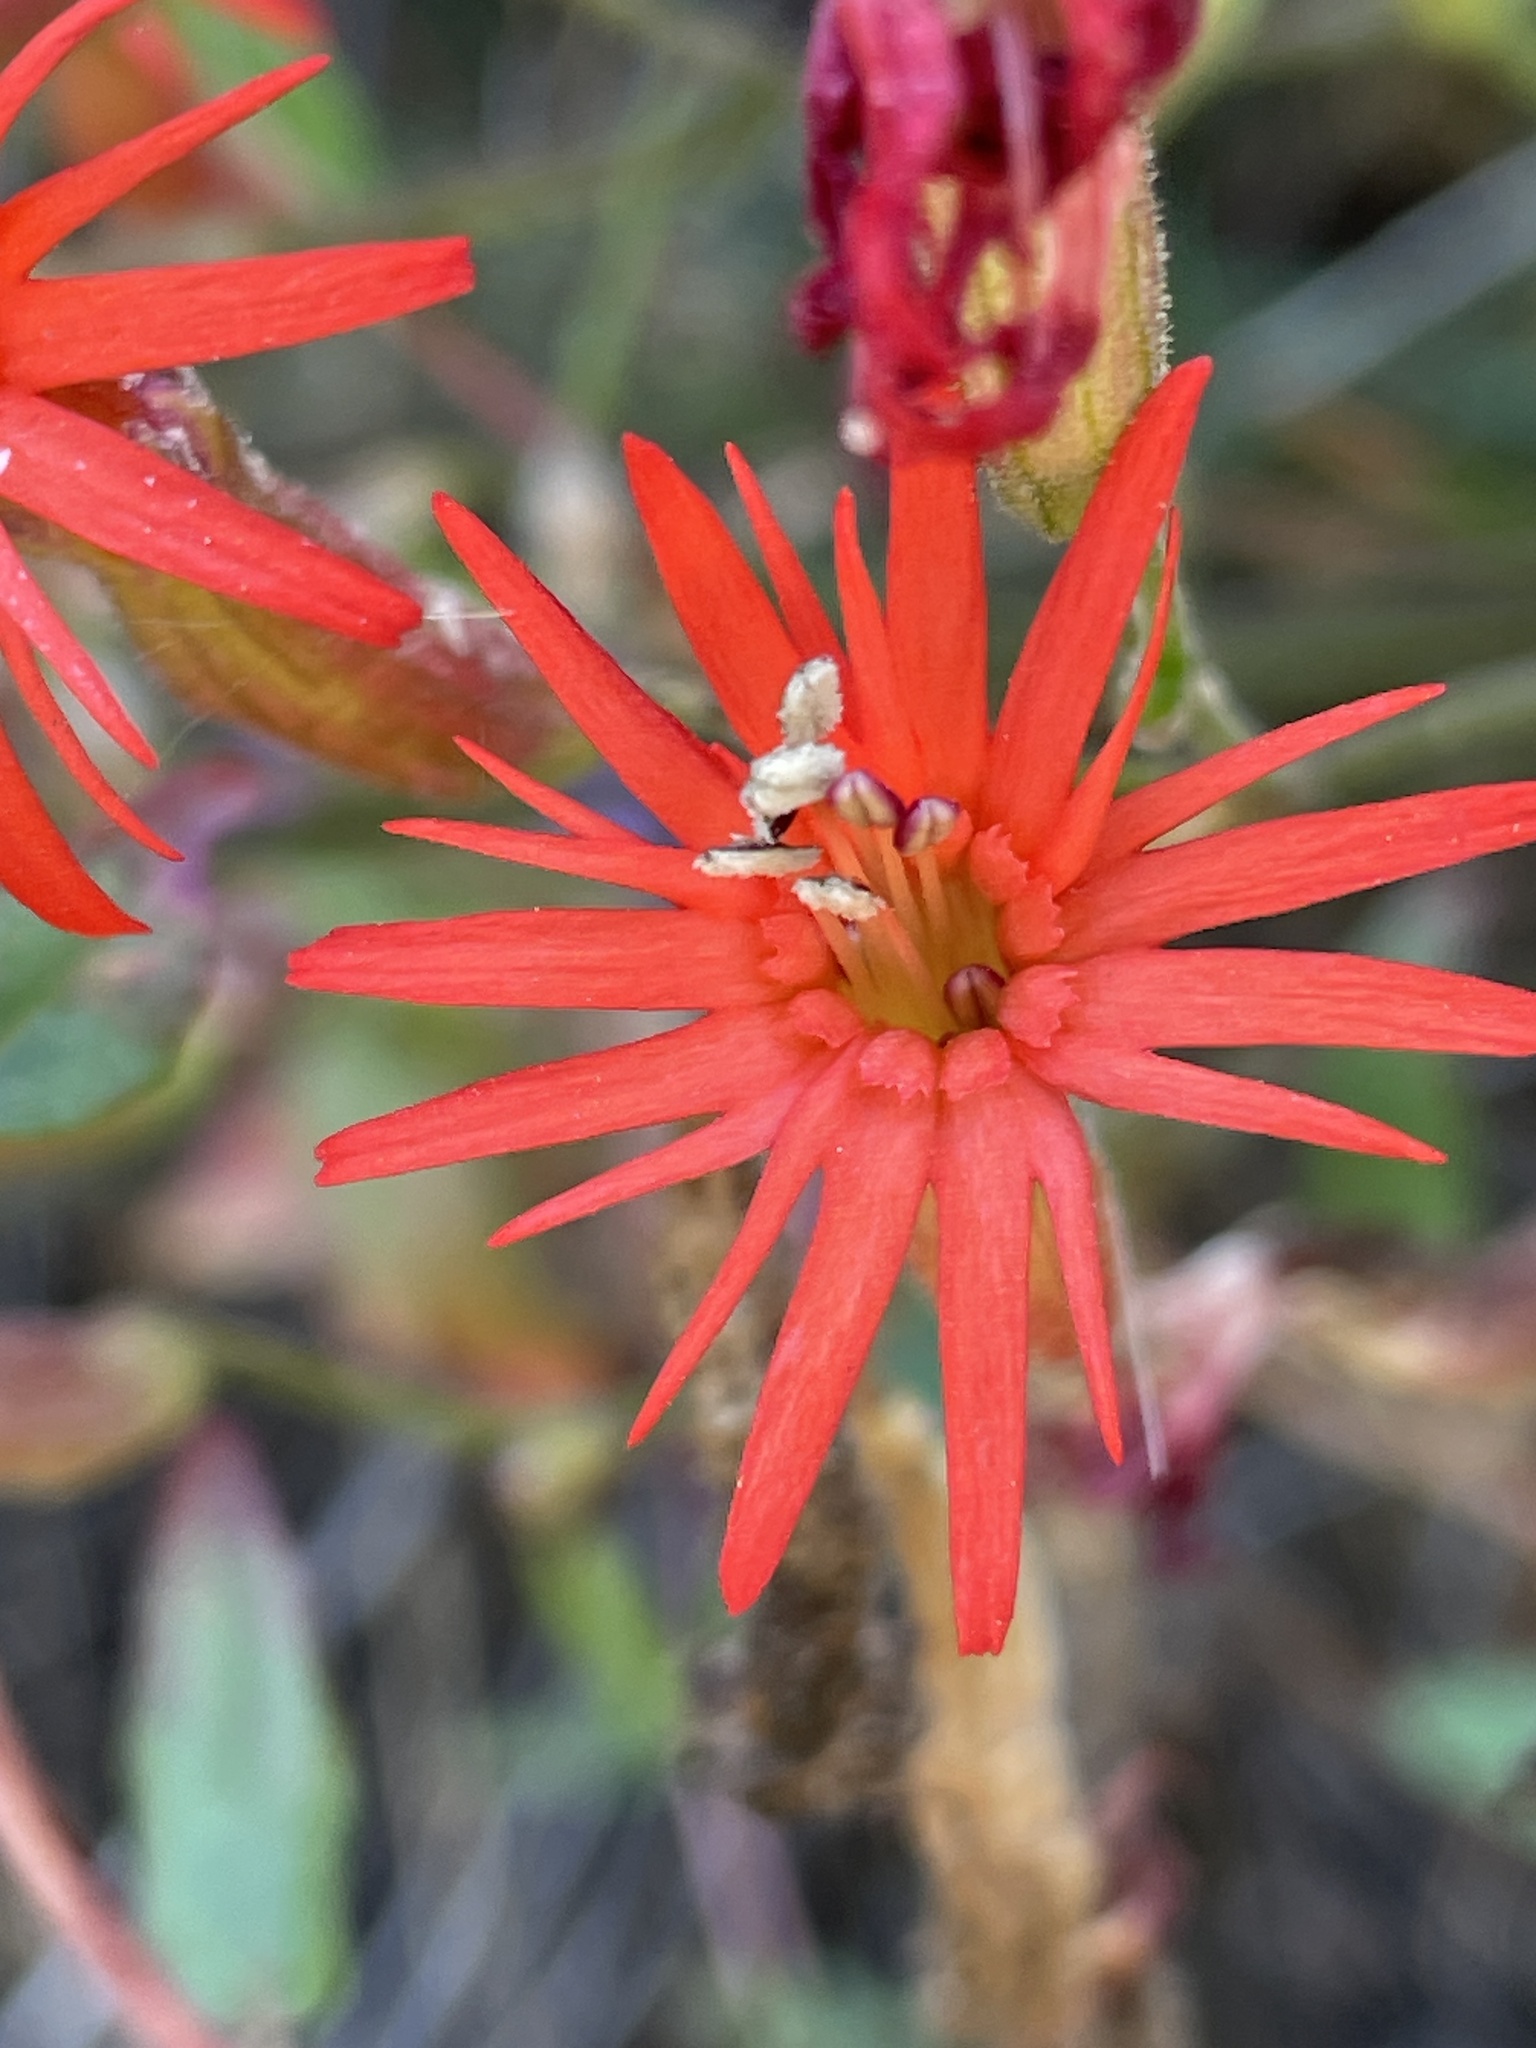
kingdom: Plantae
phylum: Tracheophyta
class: Magnoliopsida
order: Caryophyllales
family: Caryophyllaceae
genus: Silene
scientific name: Silene laciniata
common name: Indian-pink
